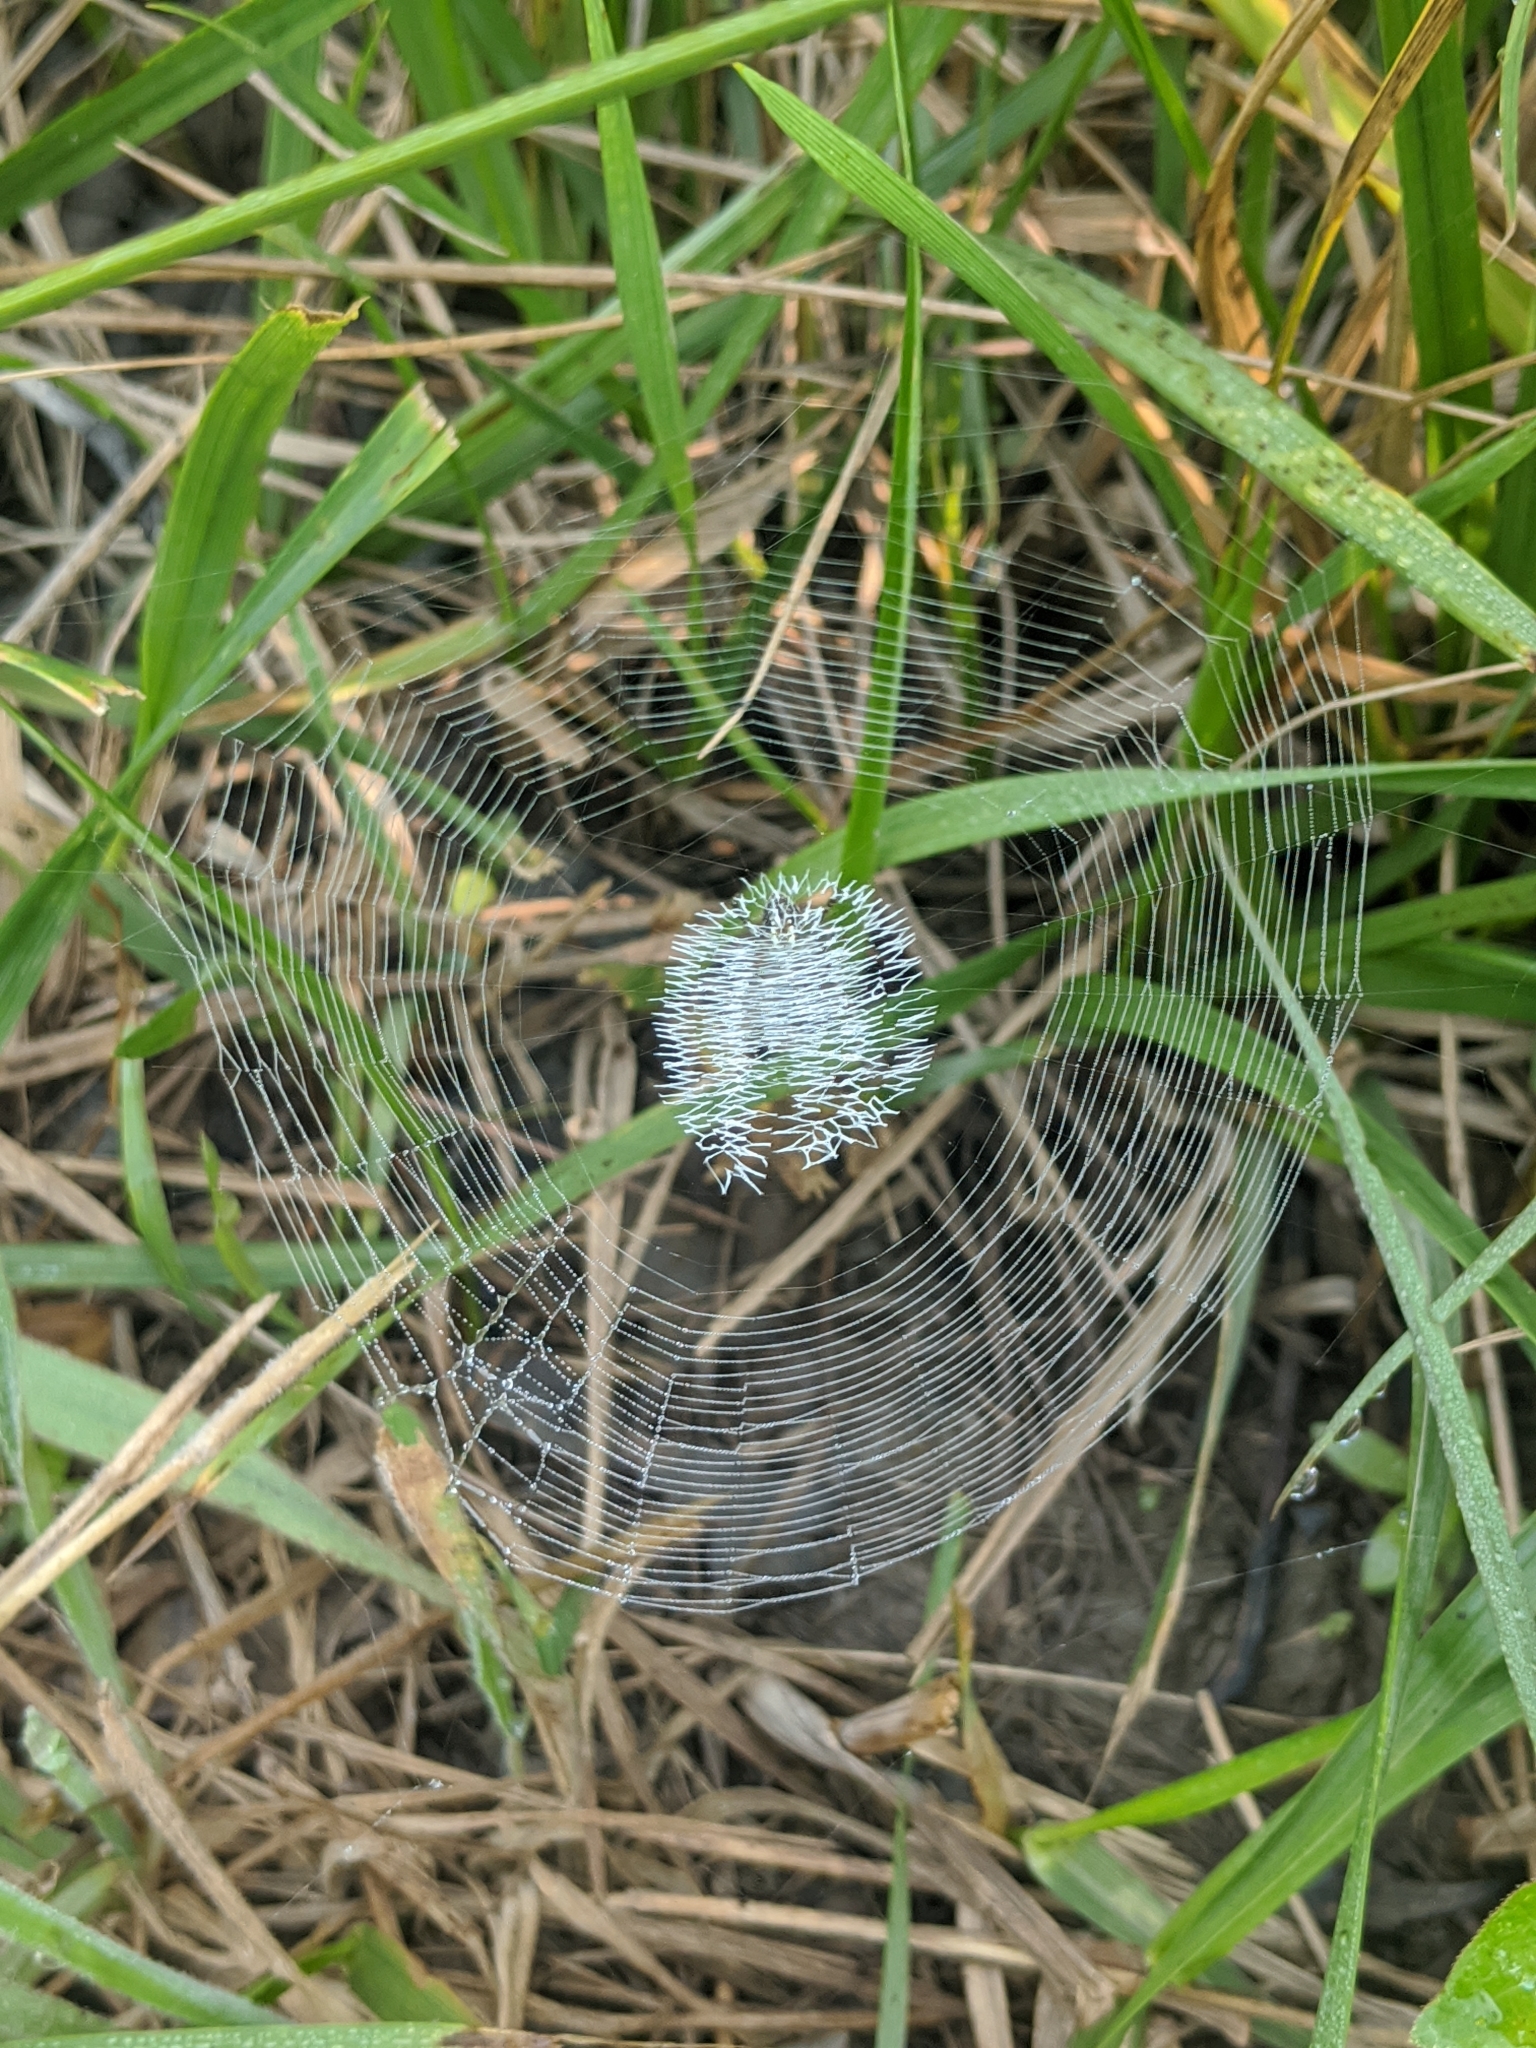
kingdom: Animalia
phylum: Arthropoda
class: Arachnida
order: Araneae
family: Araneidae
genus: Argiope
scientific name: Argiope aurantia
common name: Orb weavers
